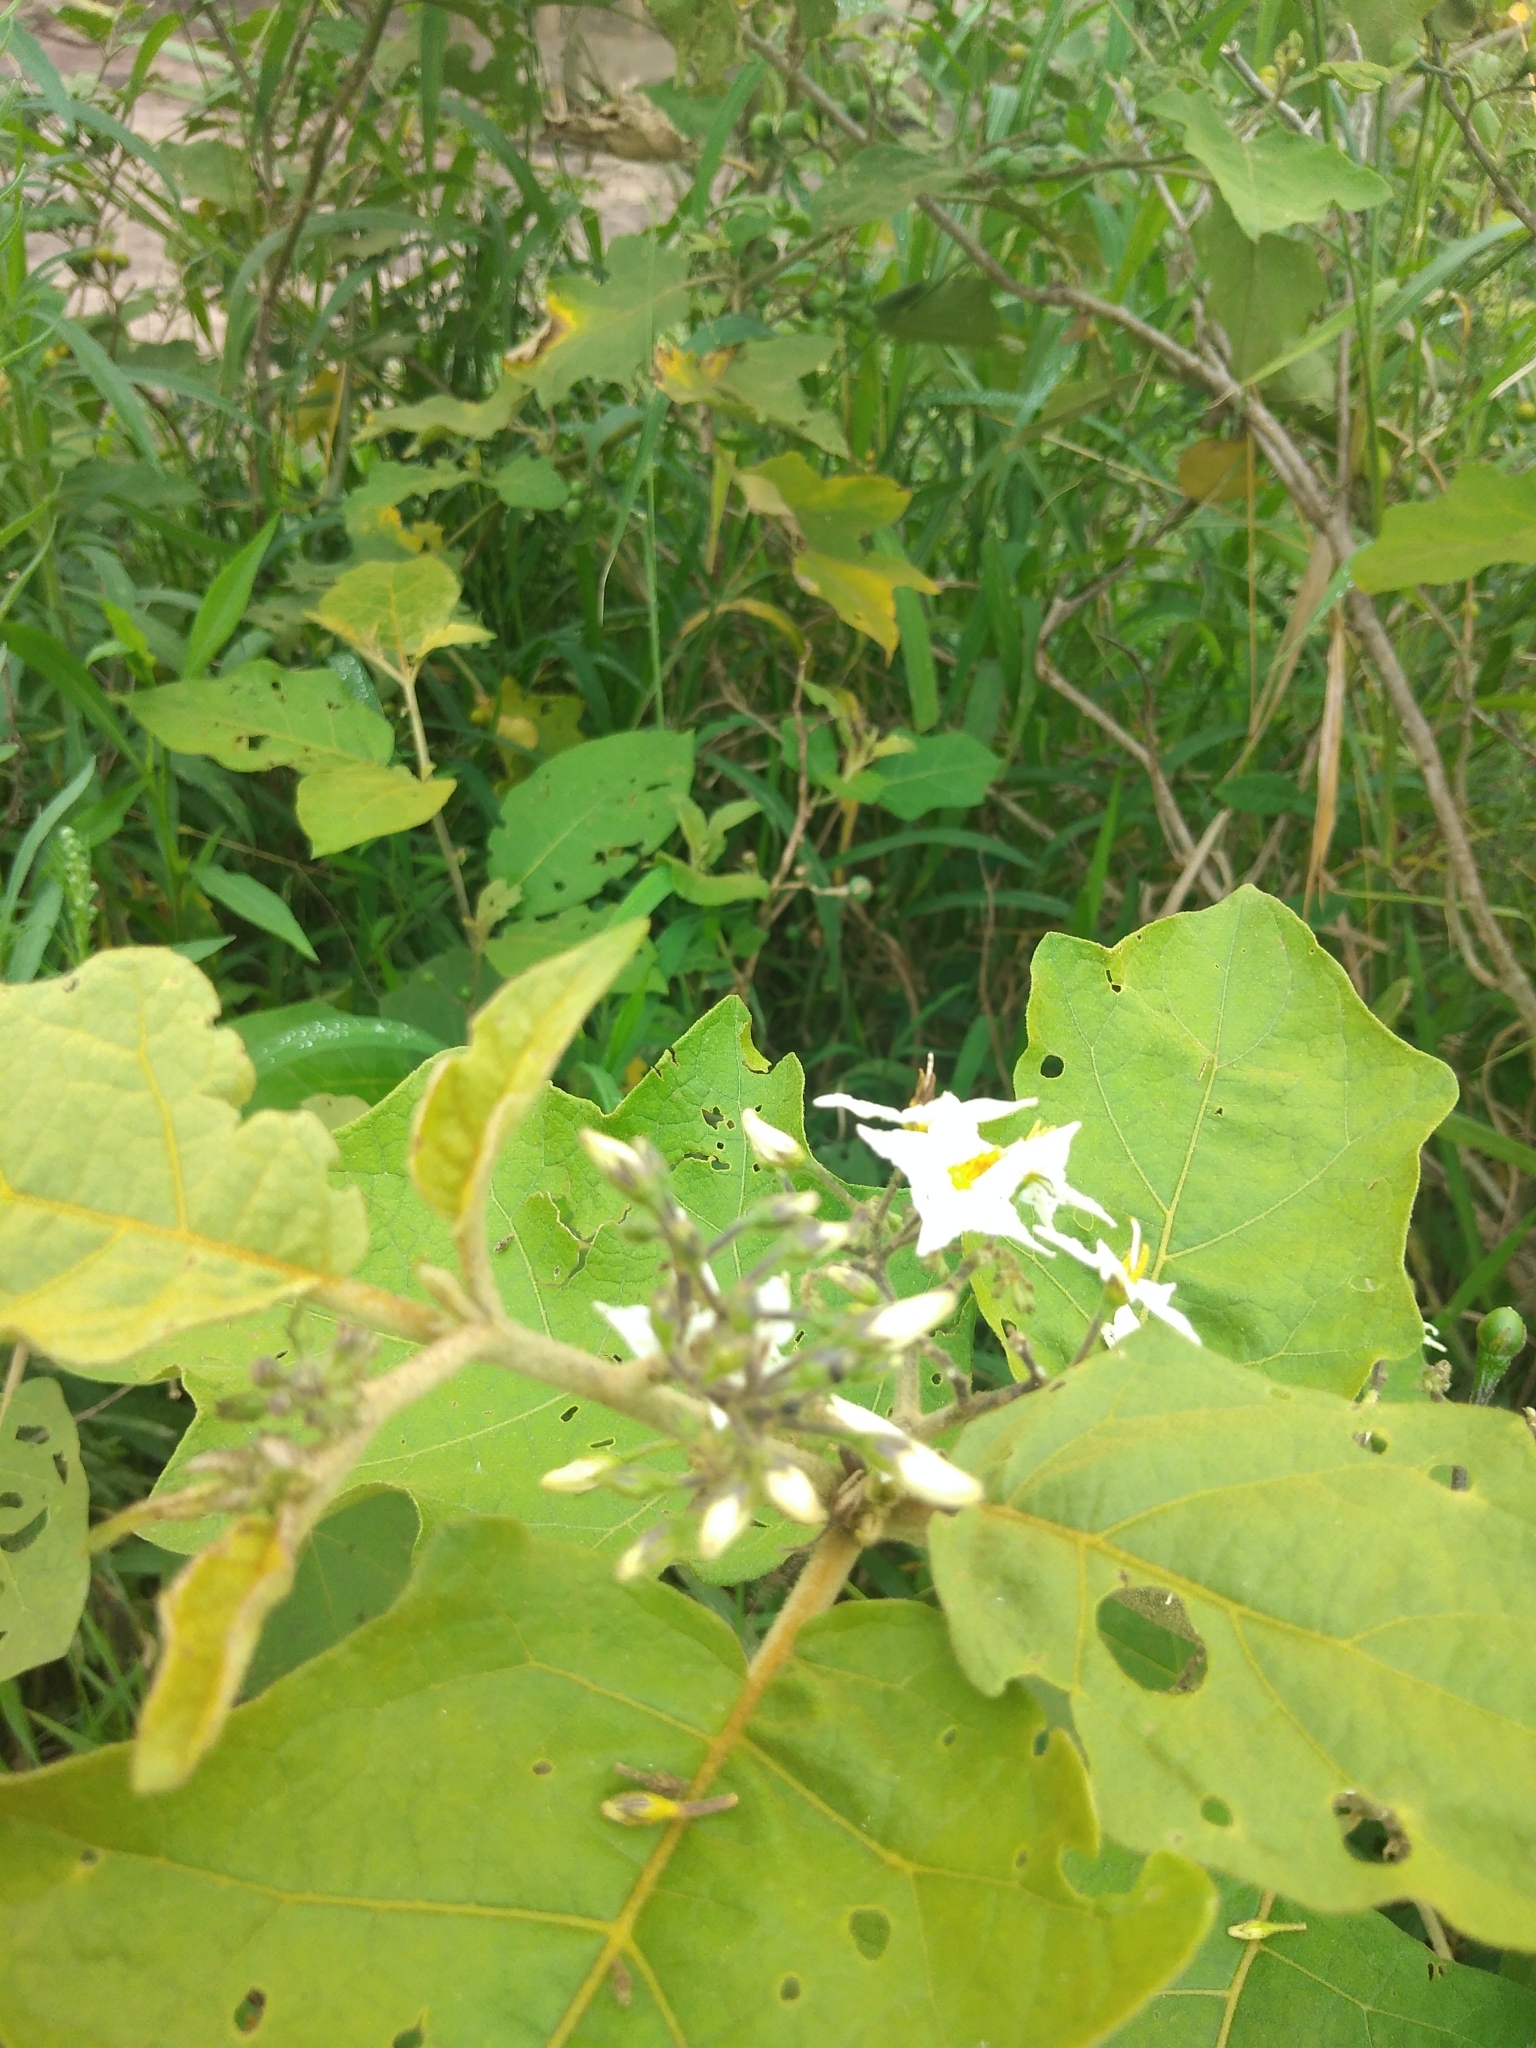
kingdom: Plantae
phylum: Tracheophyta
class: Magnoliopsida
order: Solanales
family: Solanaceae
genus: Solanum
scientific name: Solanum torvum
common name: Turkey berry
